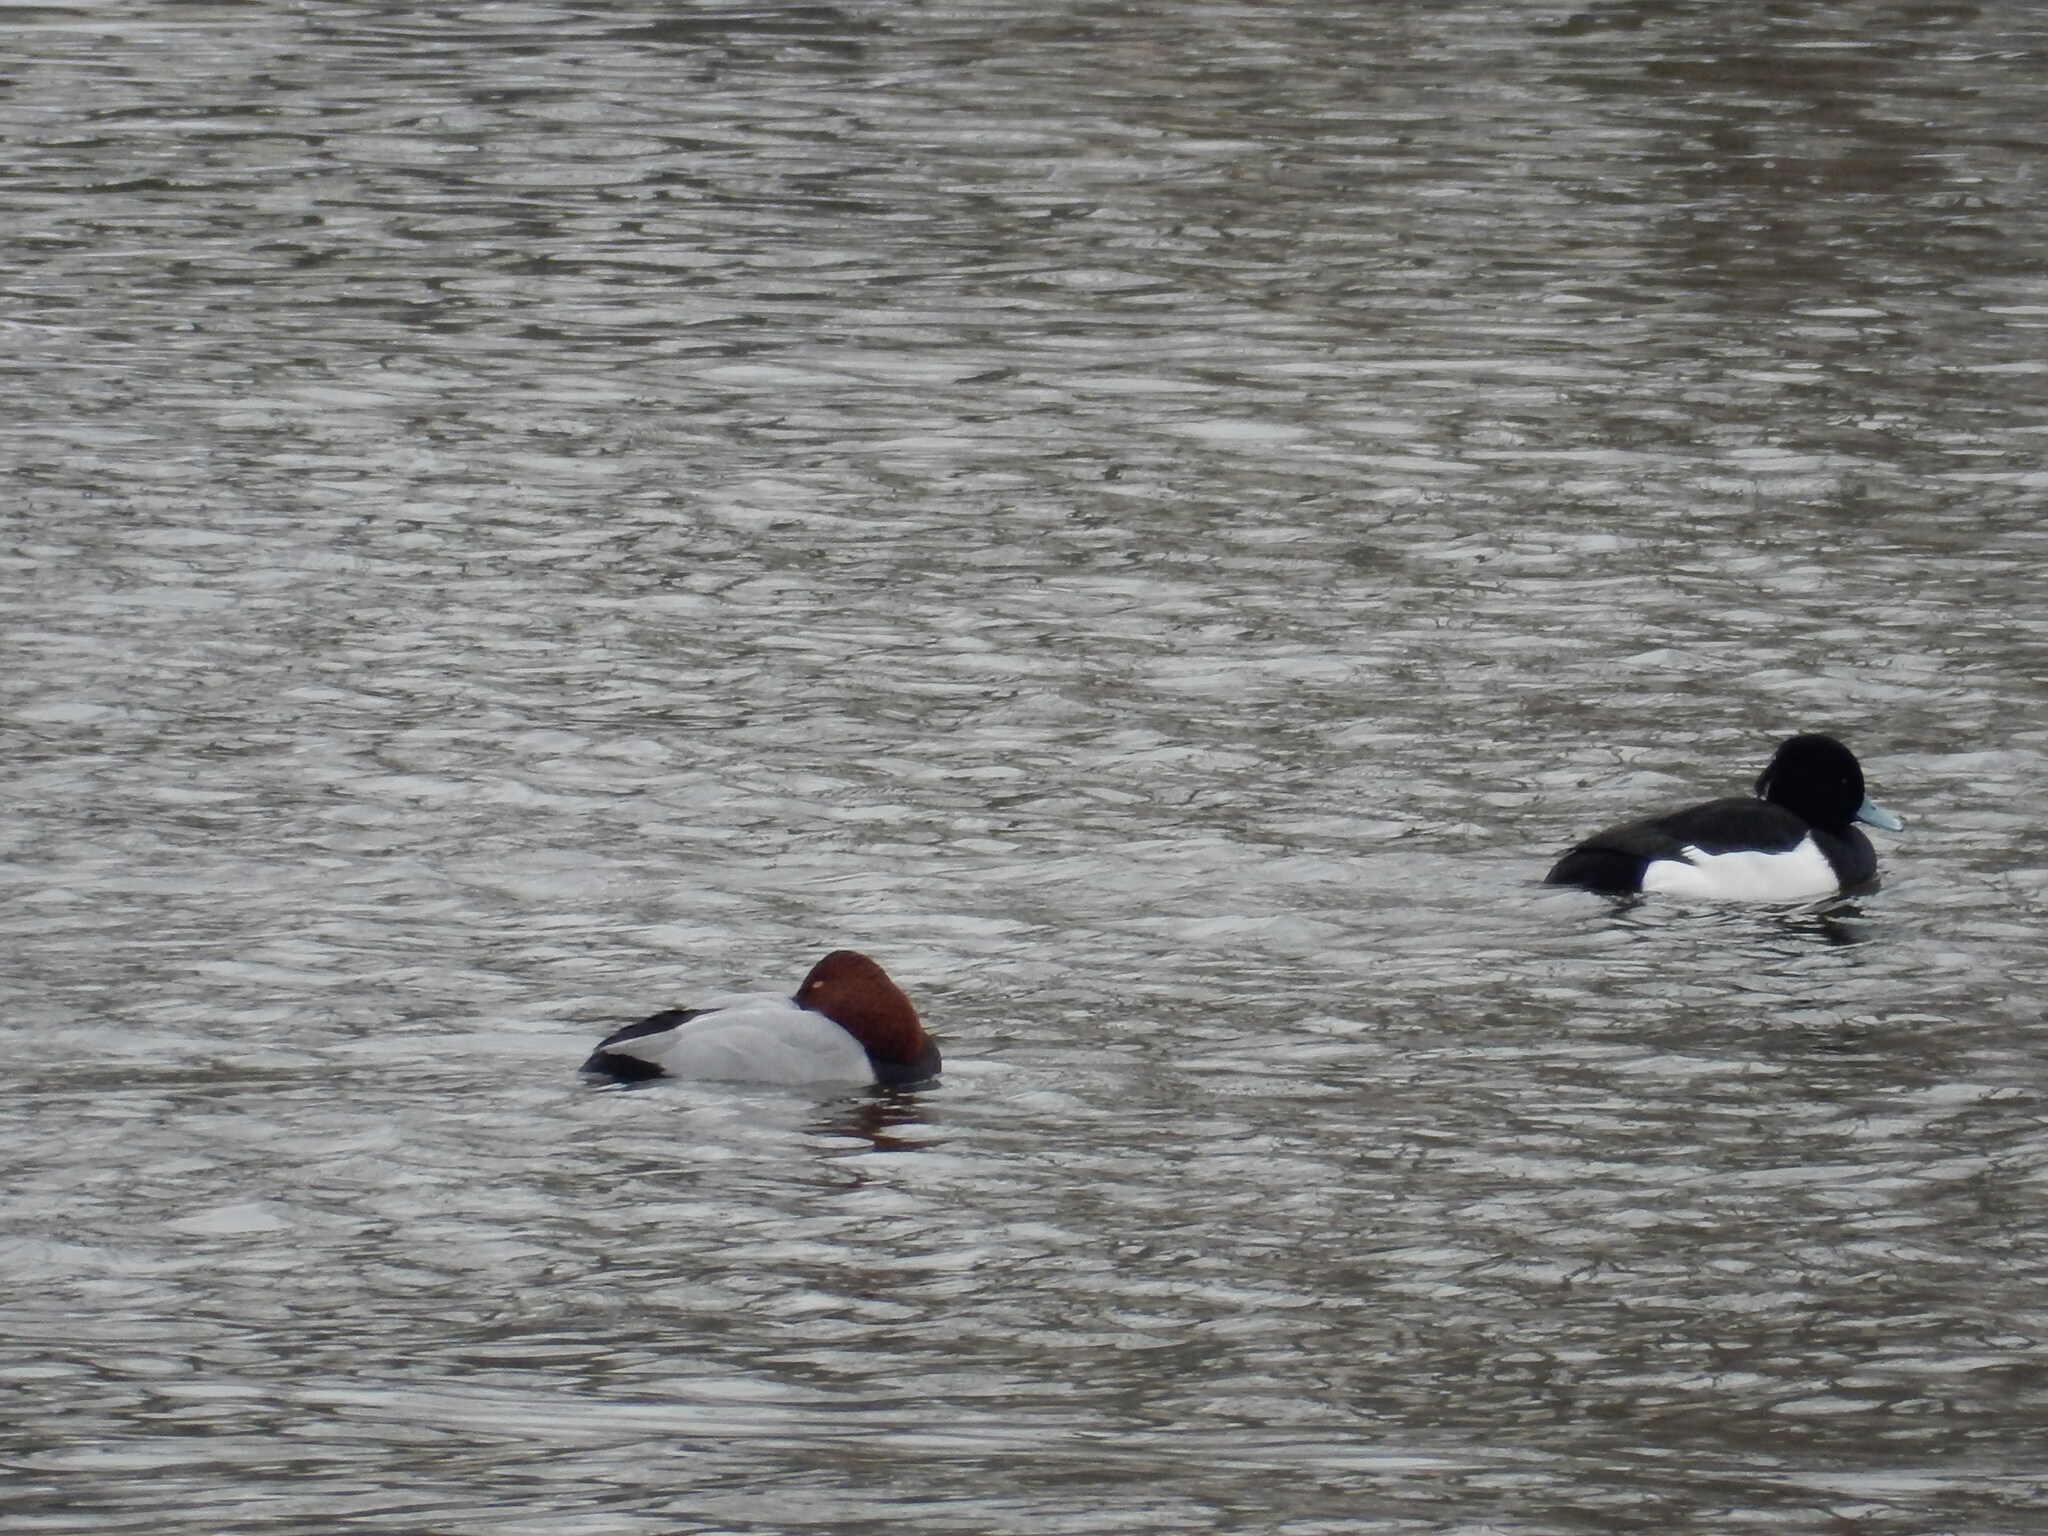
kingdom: Animalia
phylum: Chordata
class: Aves
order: Anseriformes
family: Anatidae
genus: Aythya
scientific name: Aythya ferina
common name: Common pochard
